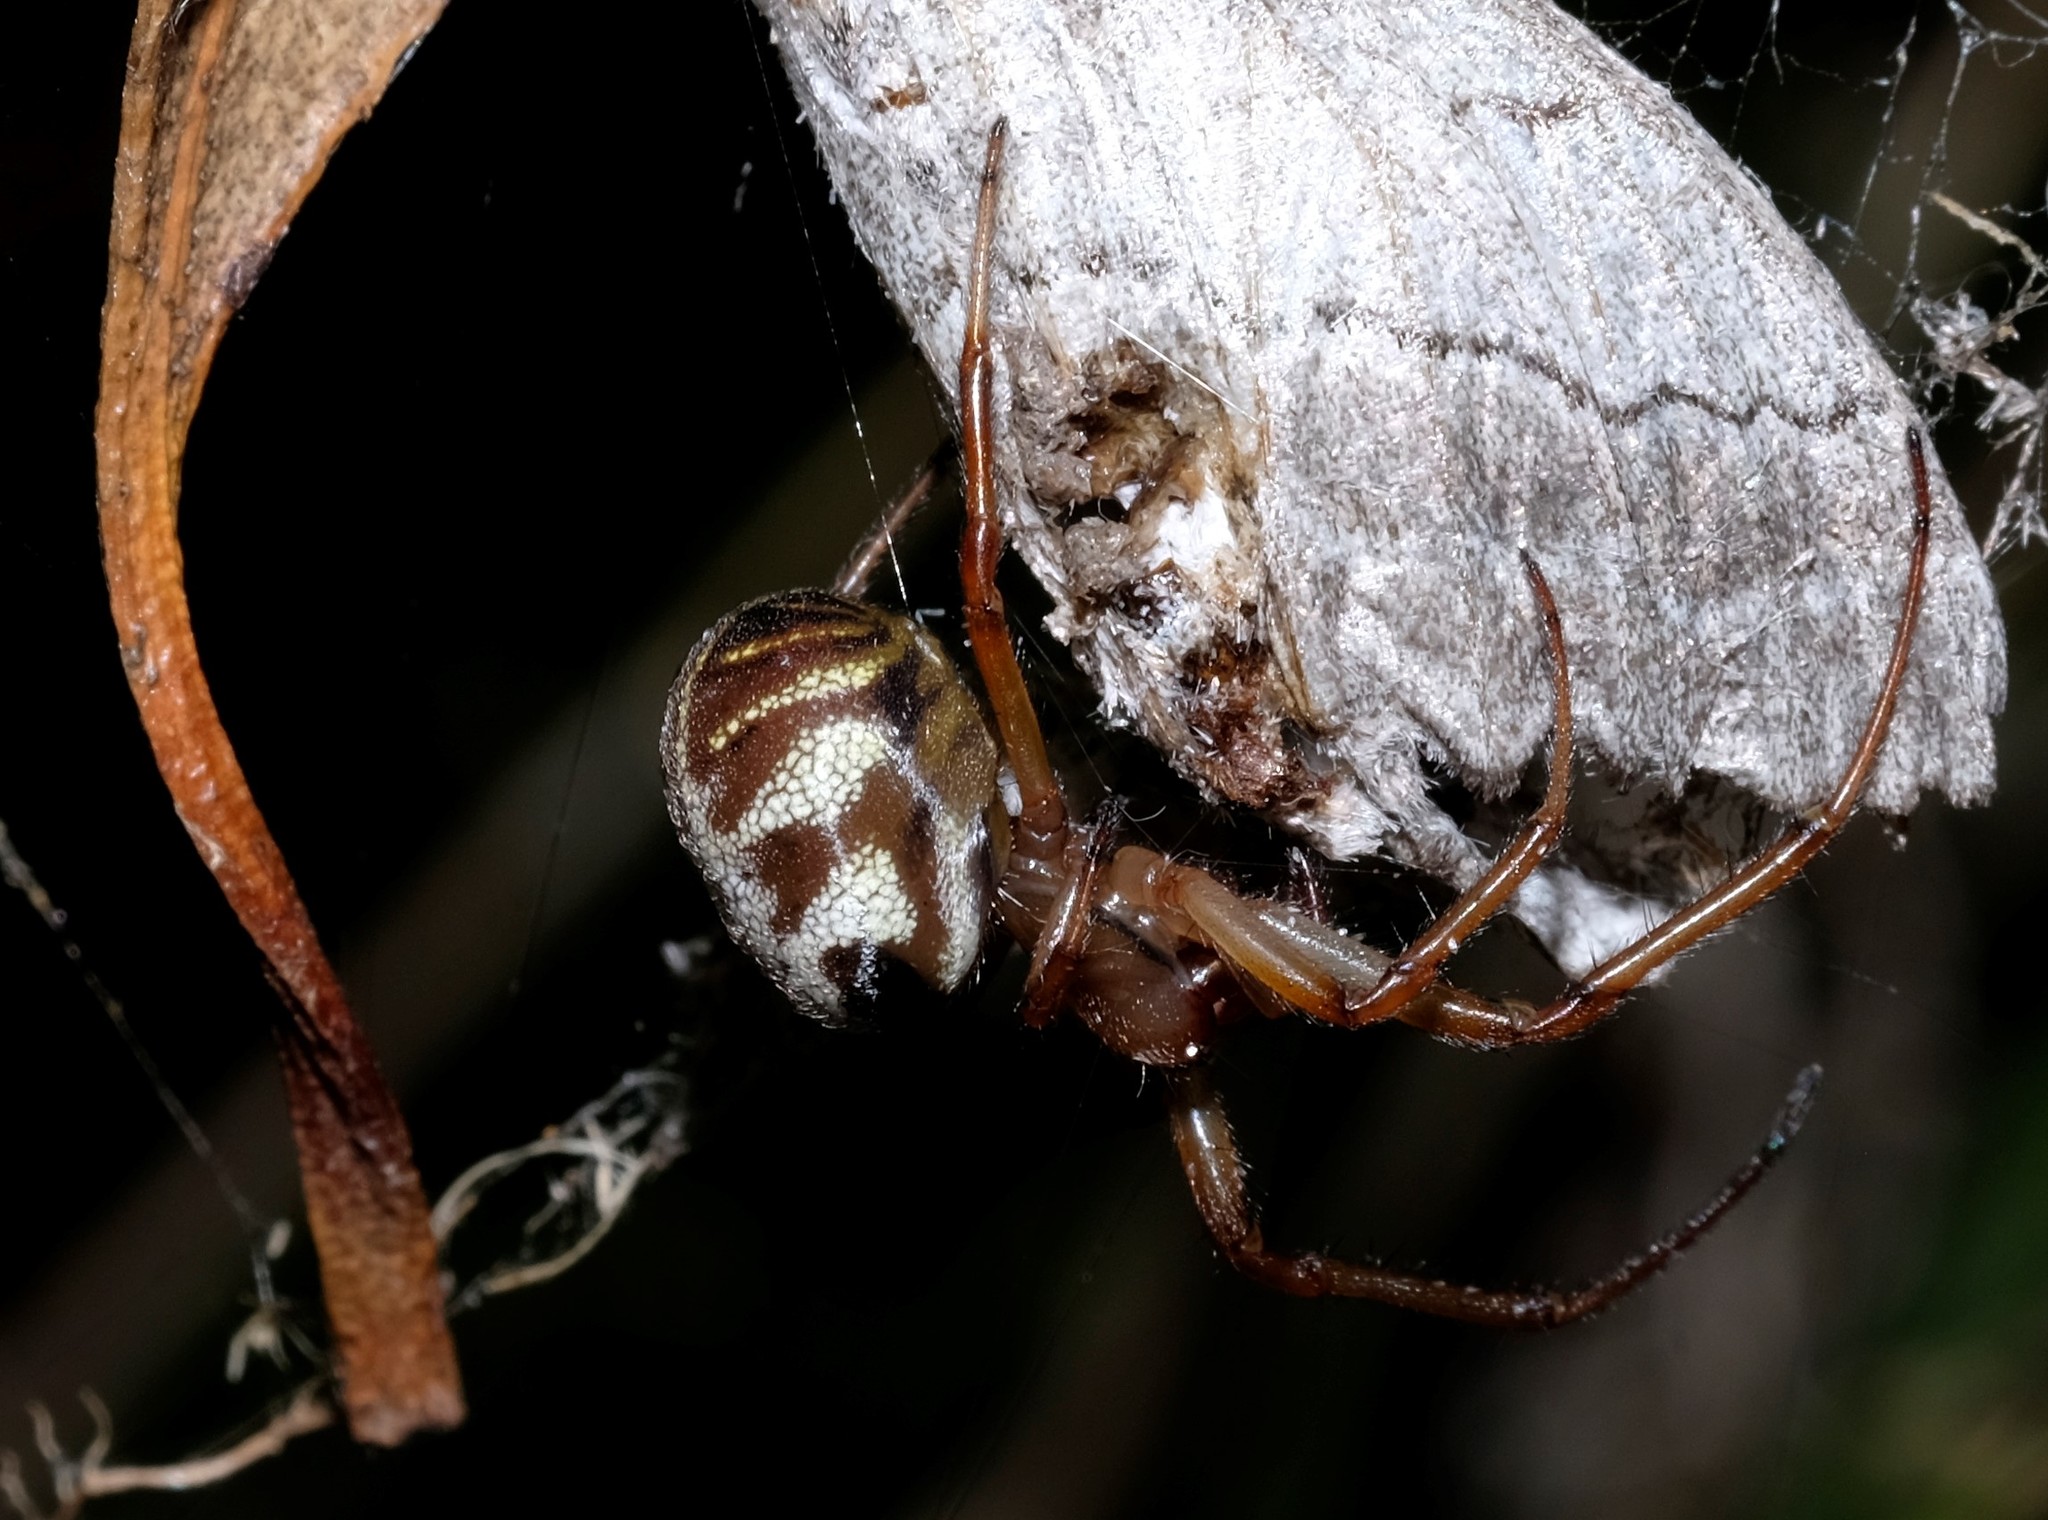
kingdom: Animalia
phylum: Arthropoda
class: Arachnida
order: Araneae
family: Araneidae
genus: Phonognatha
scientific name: Phonognatha graeffei
